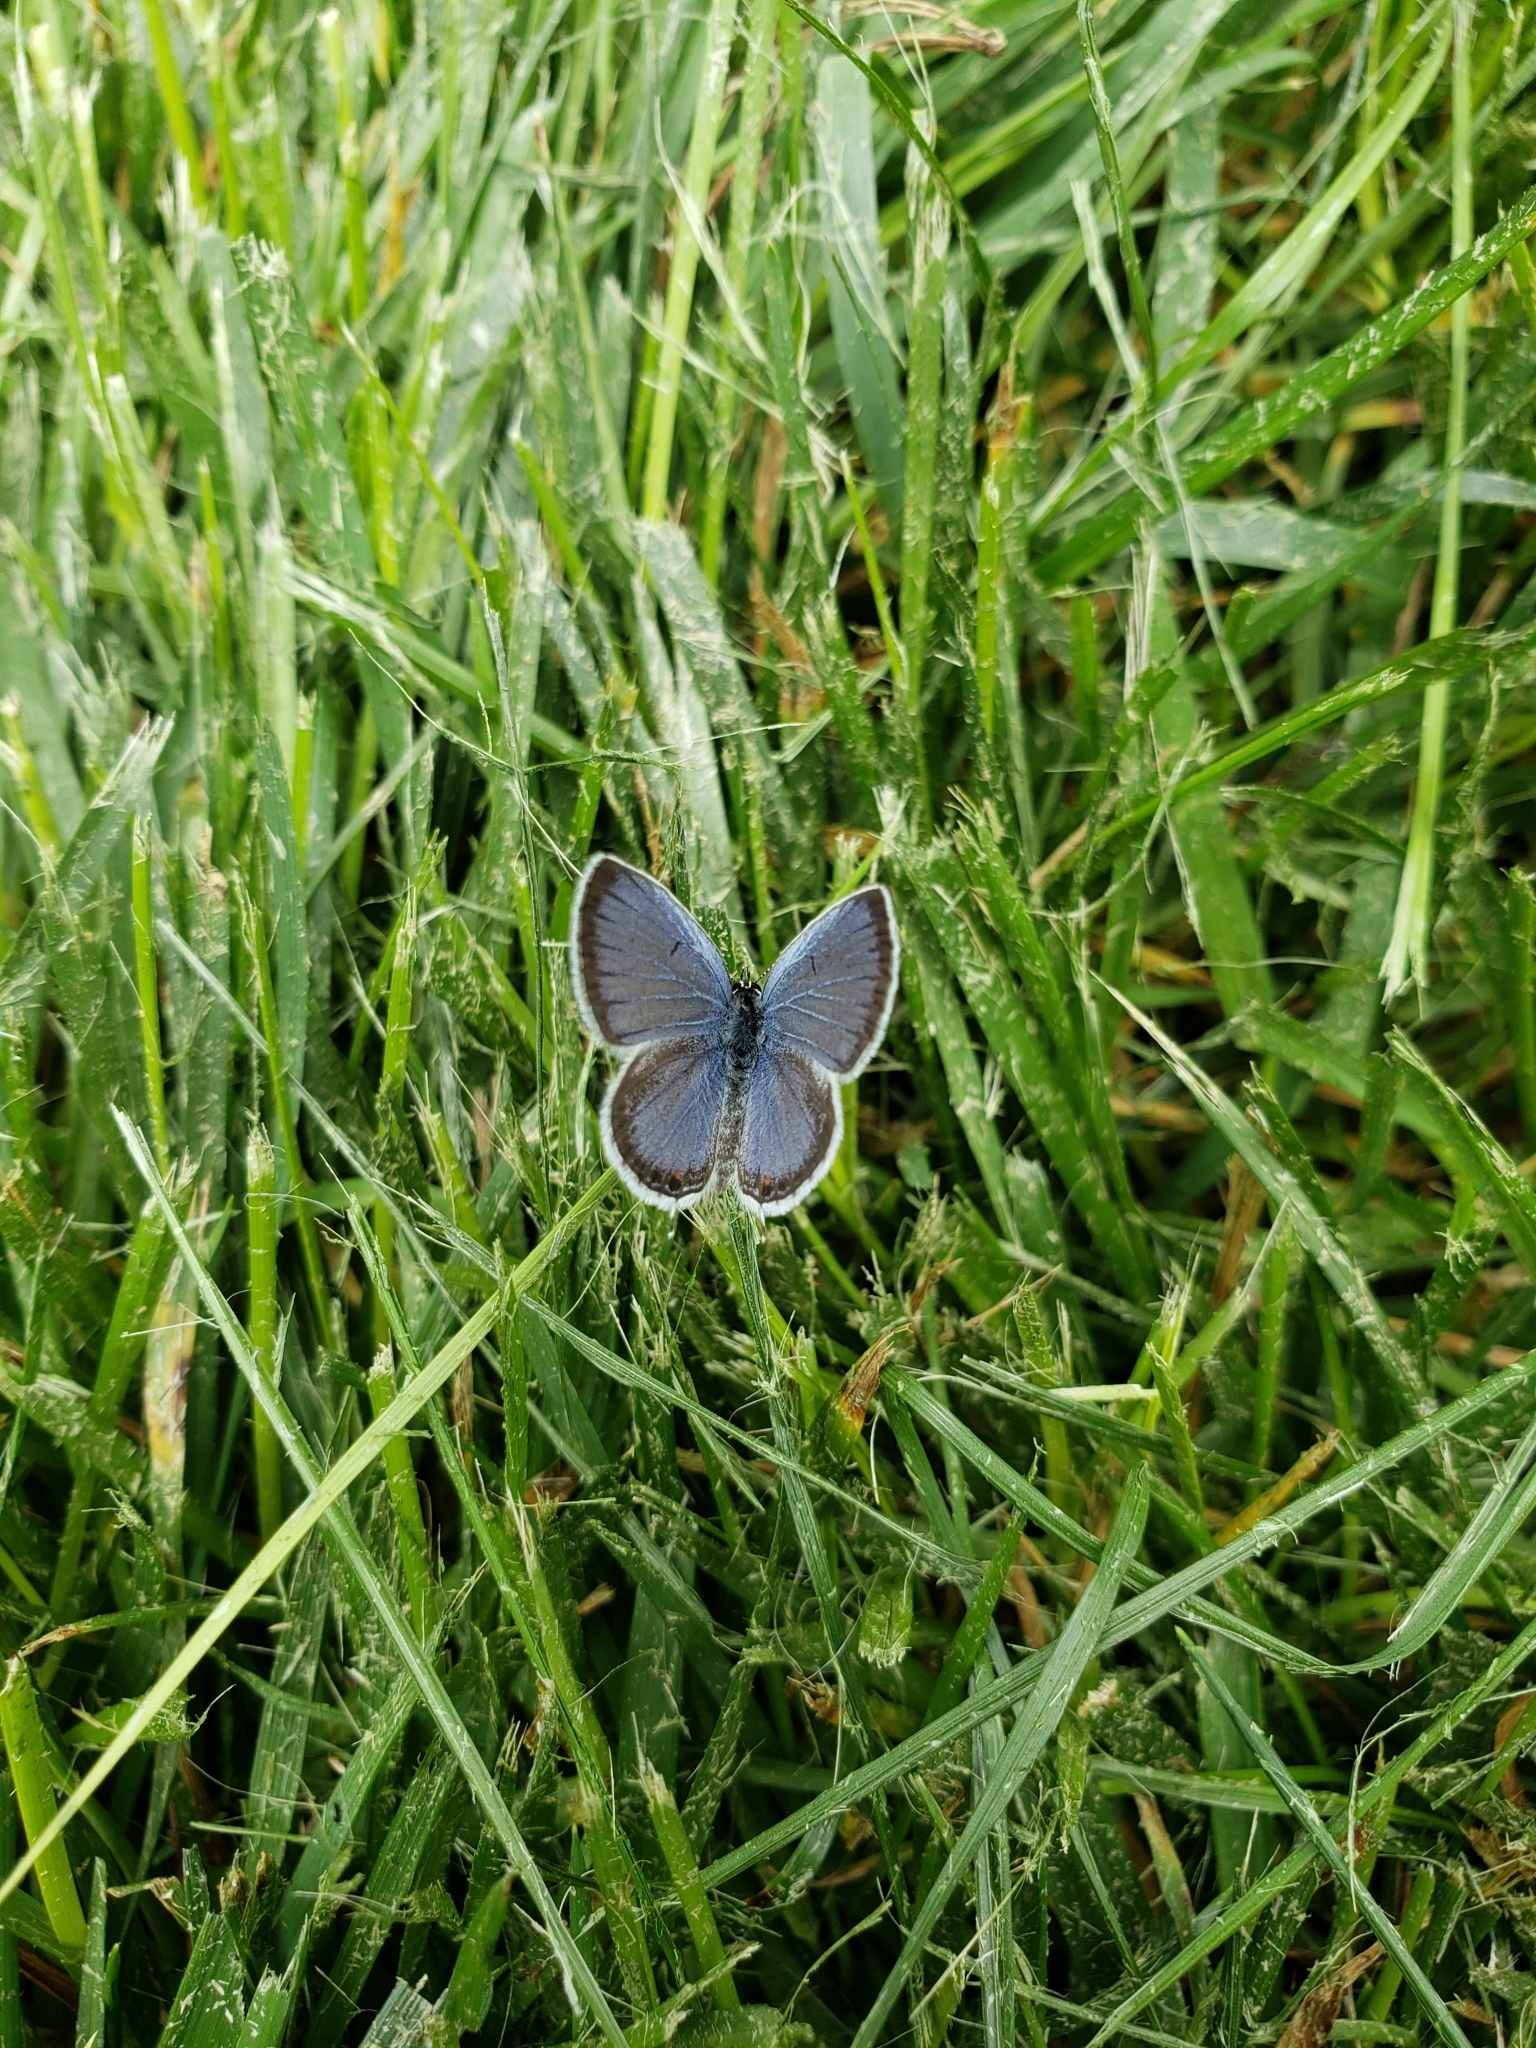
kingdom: Animalia
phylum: Arthropoda
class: Insecta
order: Lepidoptera
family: Lycaenidae
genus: Elkalyce
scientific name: Elkalyce comyntas
